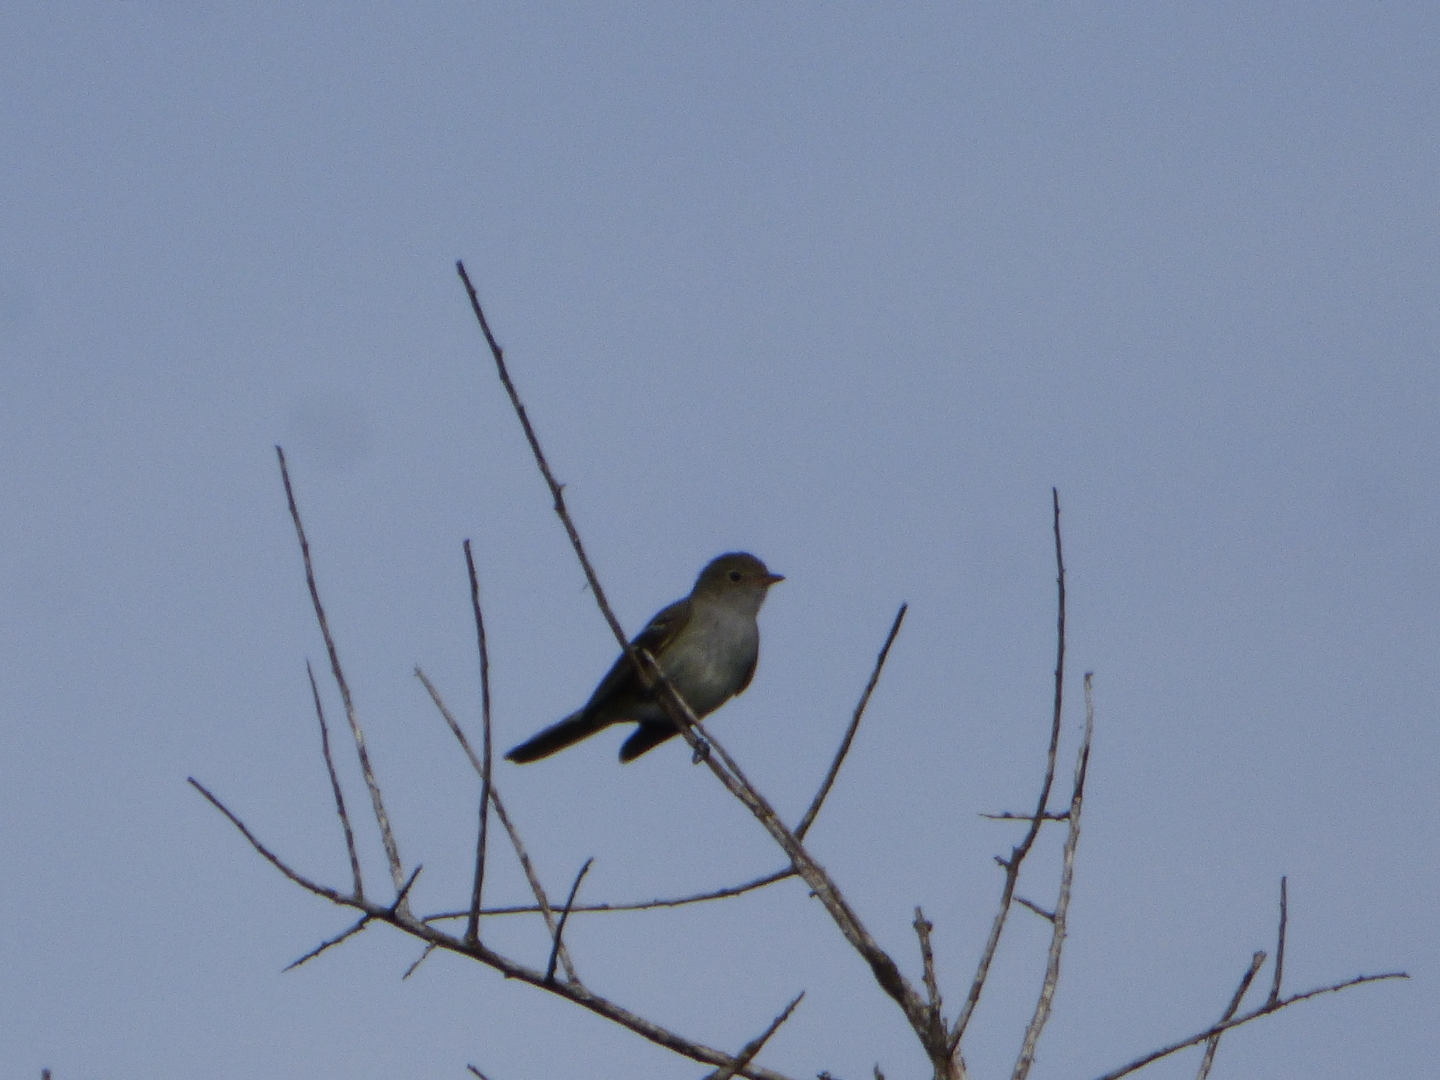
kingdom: Animalia
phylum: Chordata
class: Aves
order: Passeriformes
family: Tyrannidae
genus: Elaenia
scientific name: Elaenia parvirostris
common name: Small-billed elaenia
